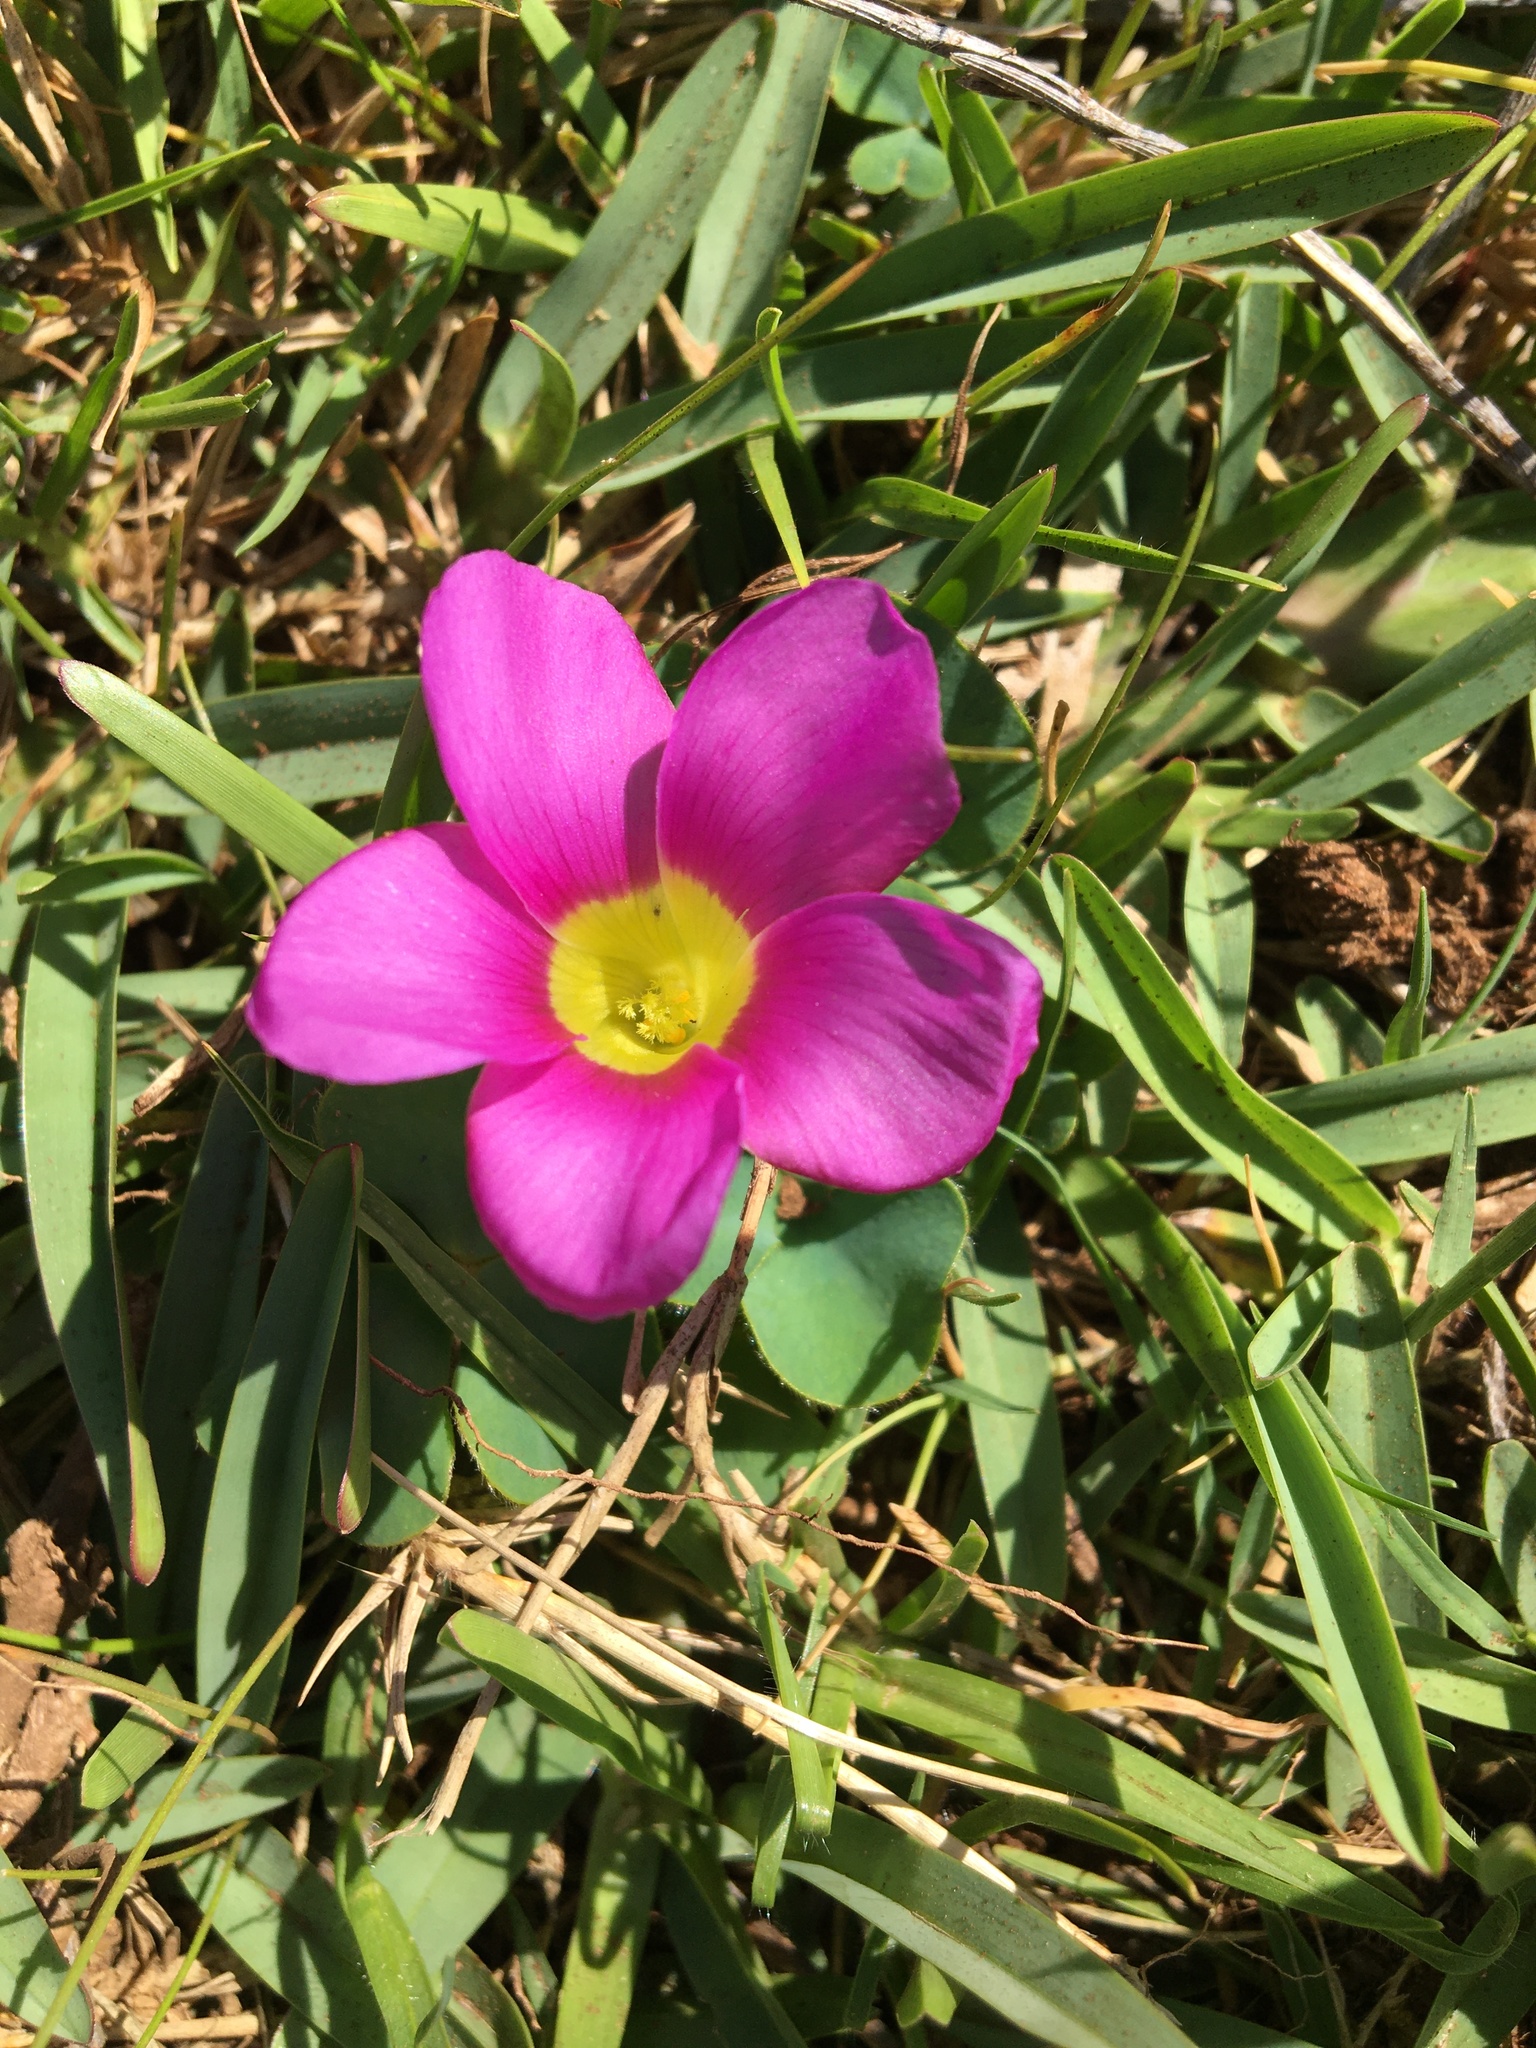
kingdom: Plantae
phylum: Tracheophyta
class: Magnoliopsida
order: Oxalidales
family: Oxalidaceae
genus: Oxalis
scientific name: Oxalis purpurea
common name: Purple woodsorrel
